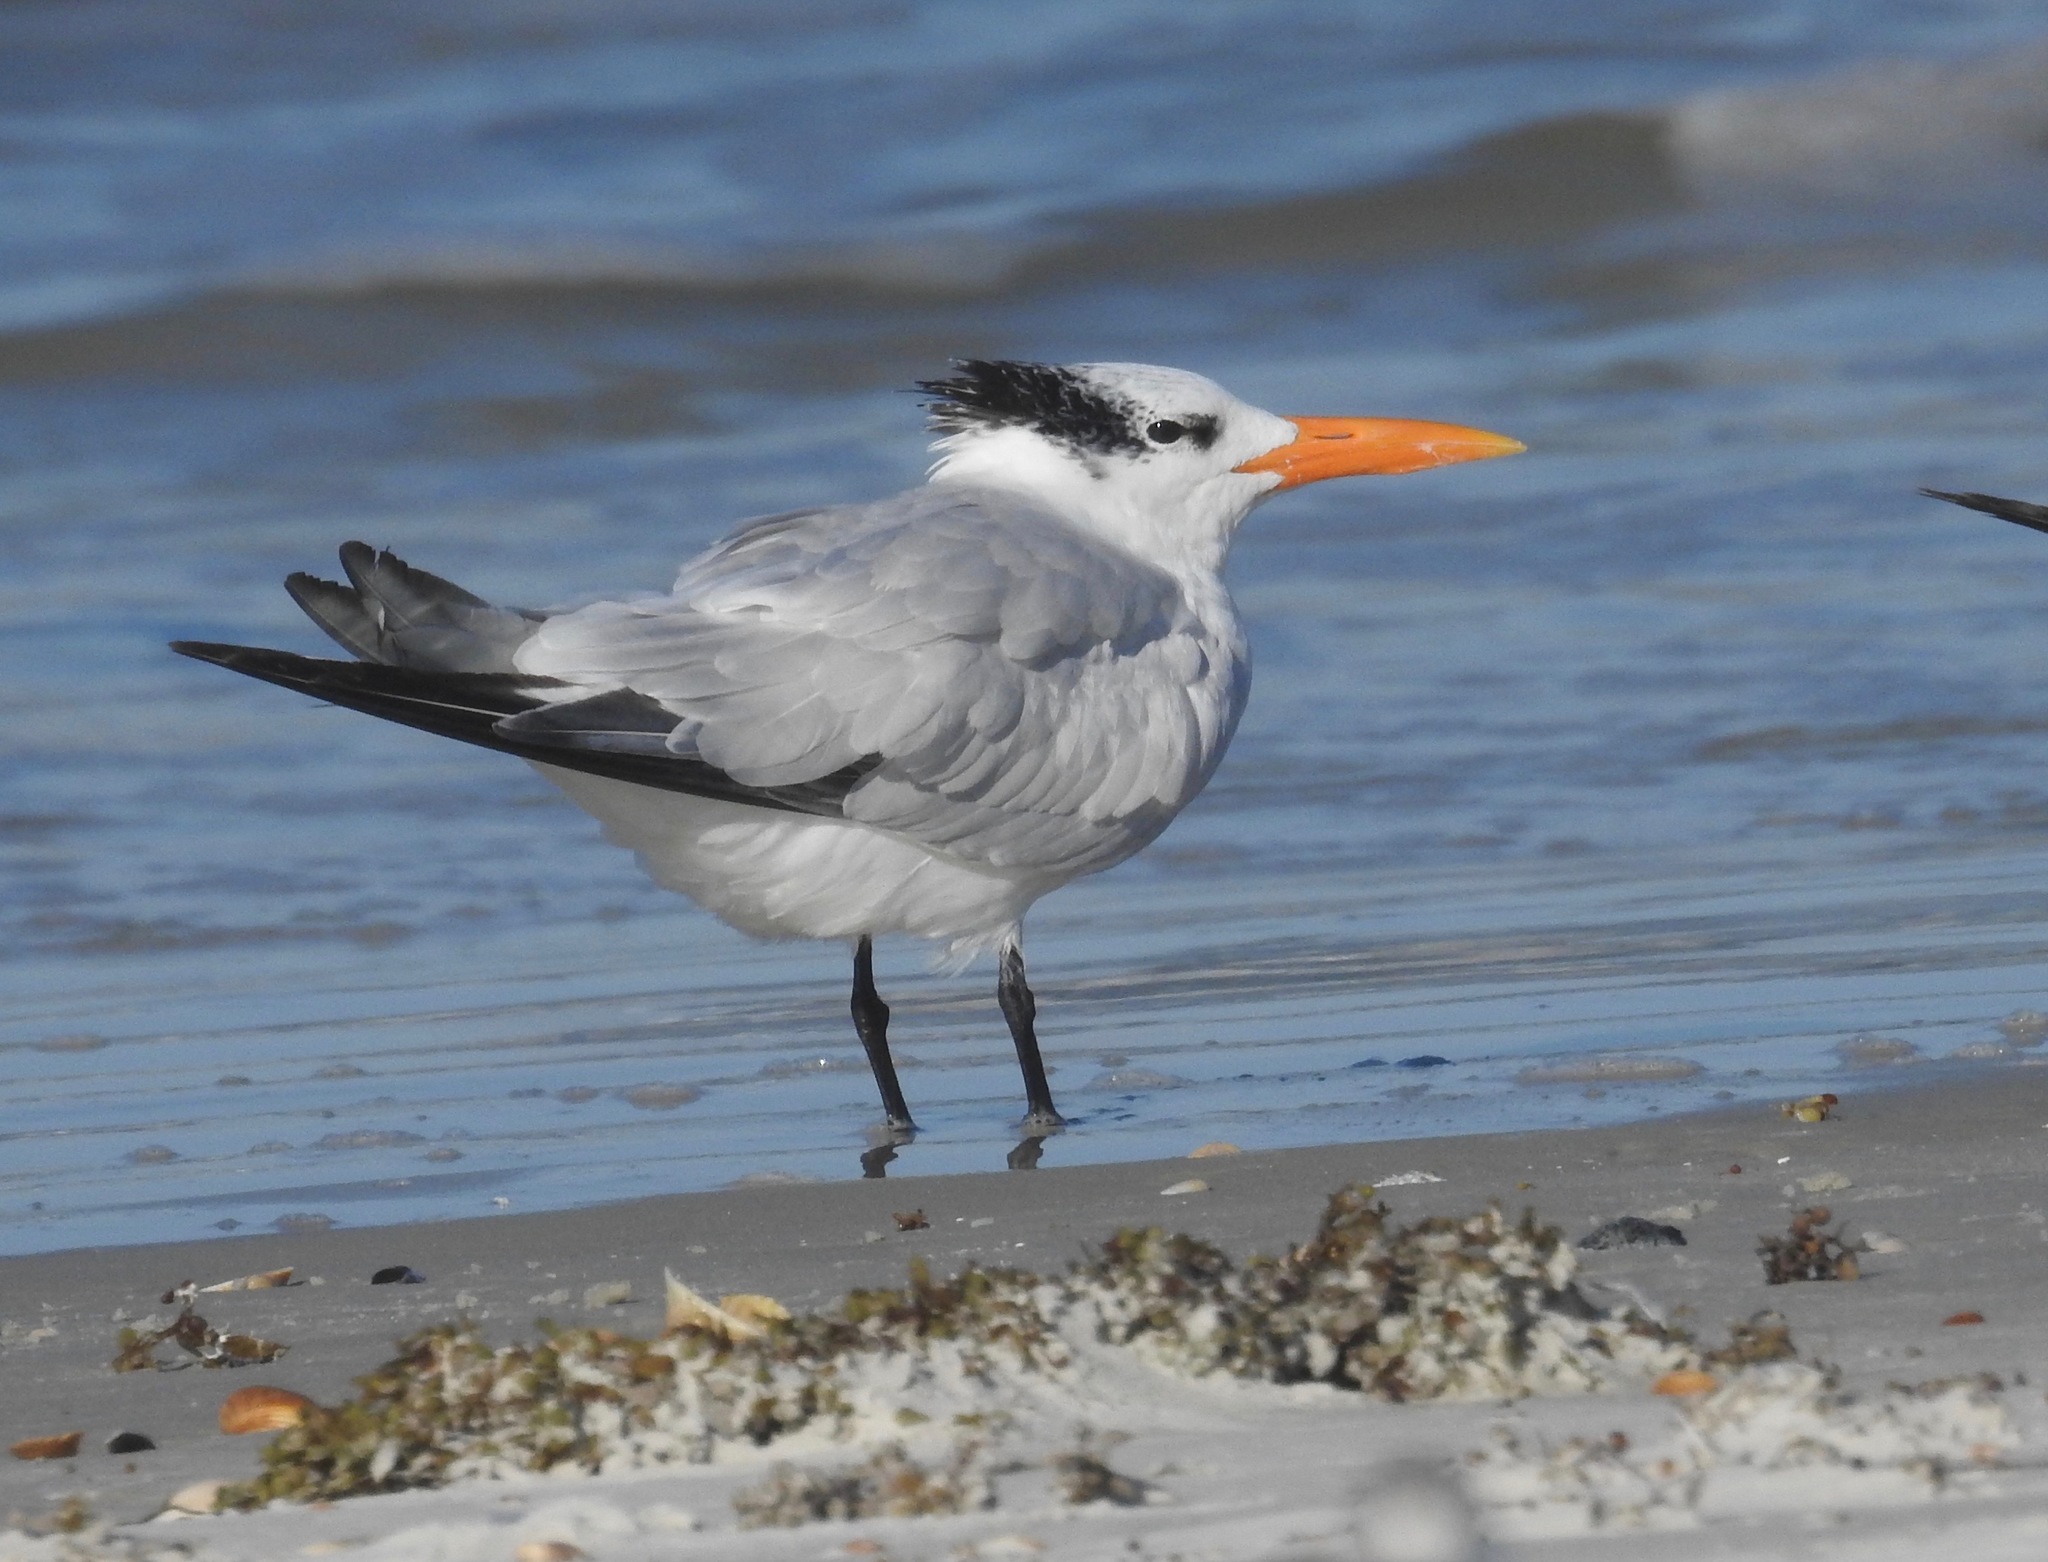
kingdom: Animalia
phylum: Chordata
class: Aves
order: Charadriiformes
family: Laridae
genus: Thalasseus
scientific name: Thalasseus maximus
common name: Royal tern
